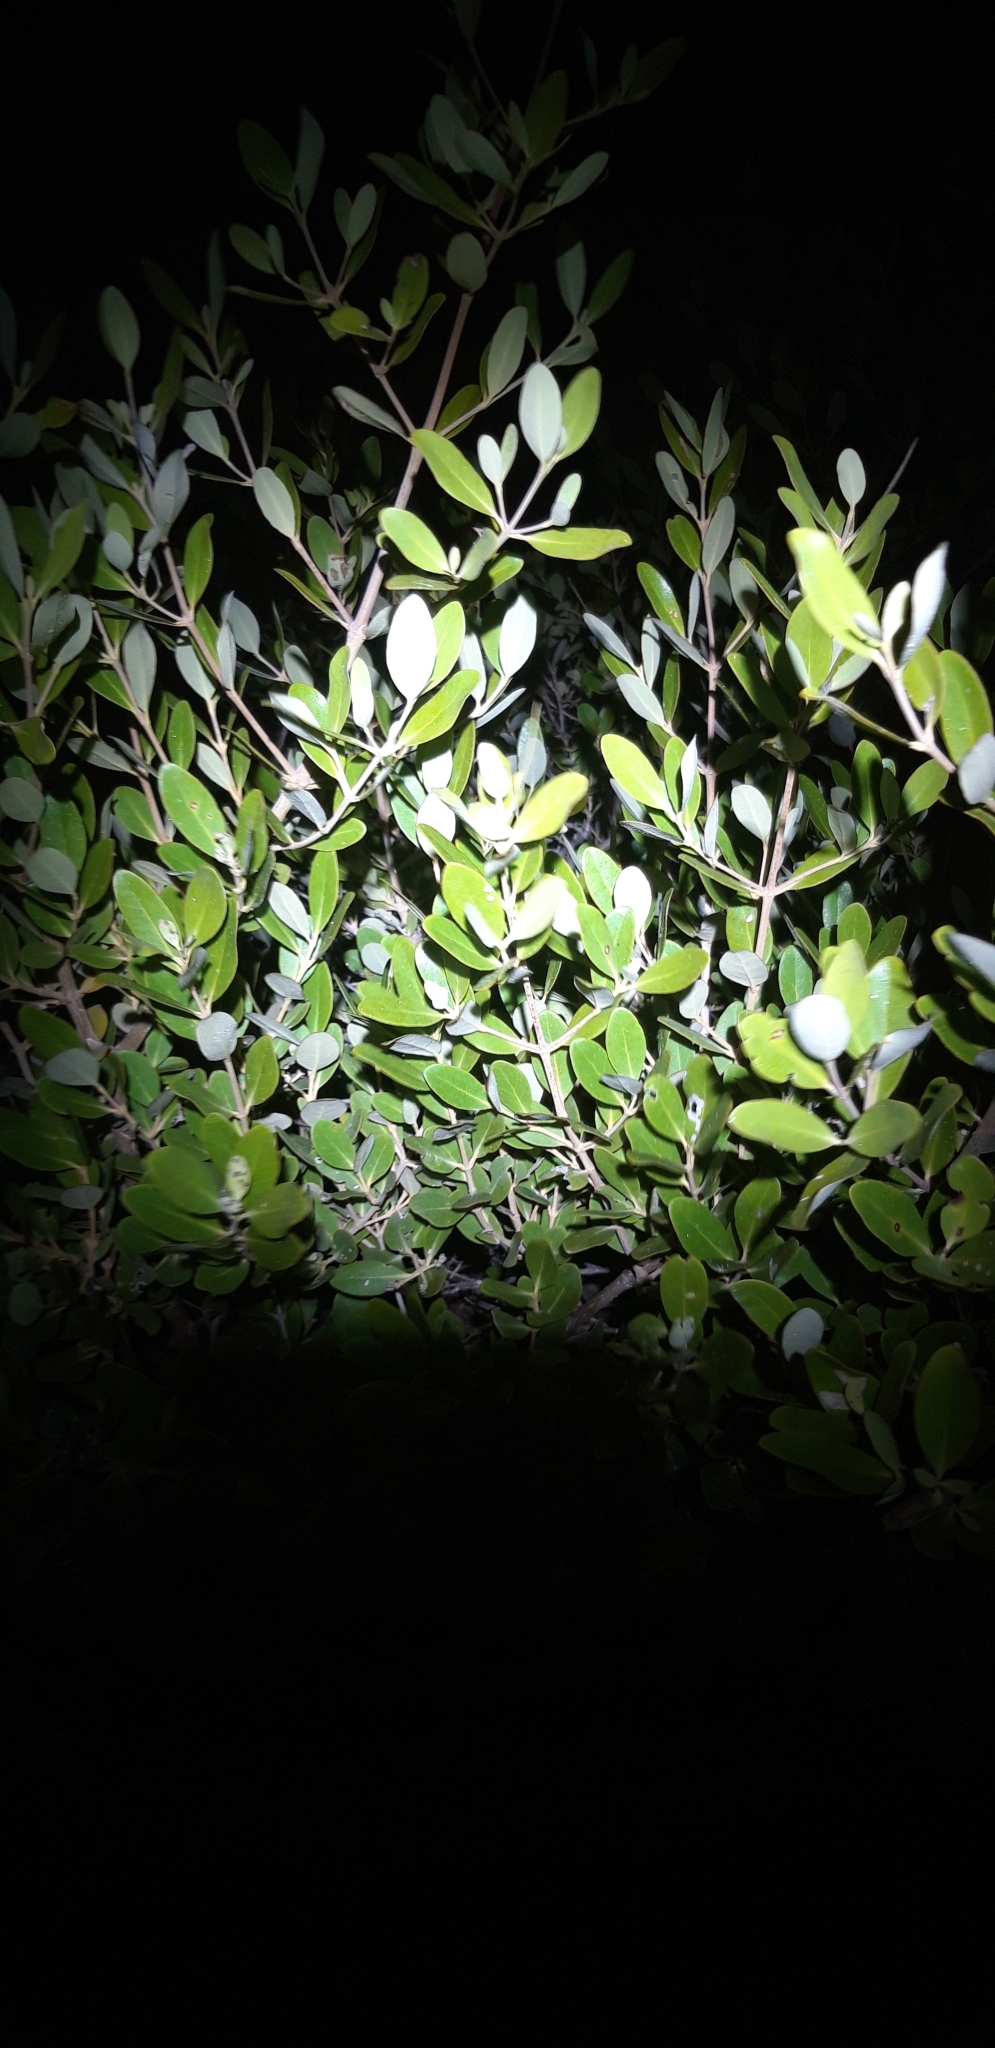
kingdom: Plantae
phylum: Tracheophyta
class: Magnoliopsida
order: Lamiales
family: Acanthaceae
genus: Avicennia
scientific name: Avicennia germinans
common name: Black mangrove
